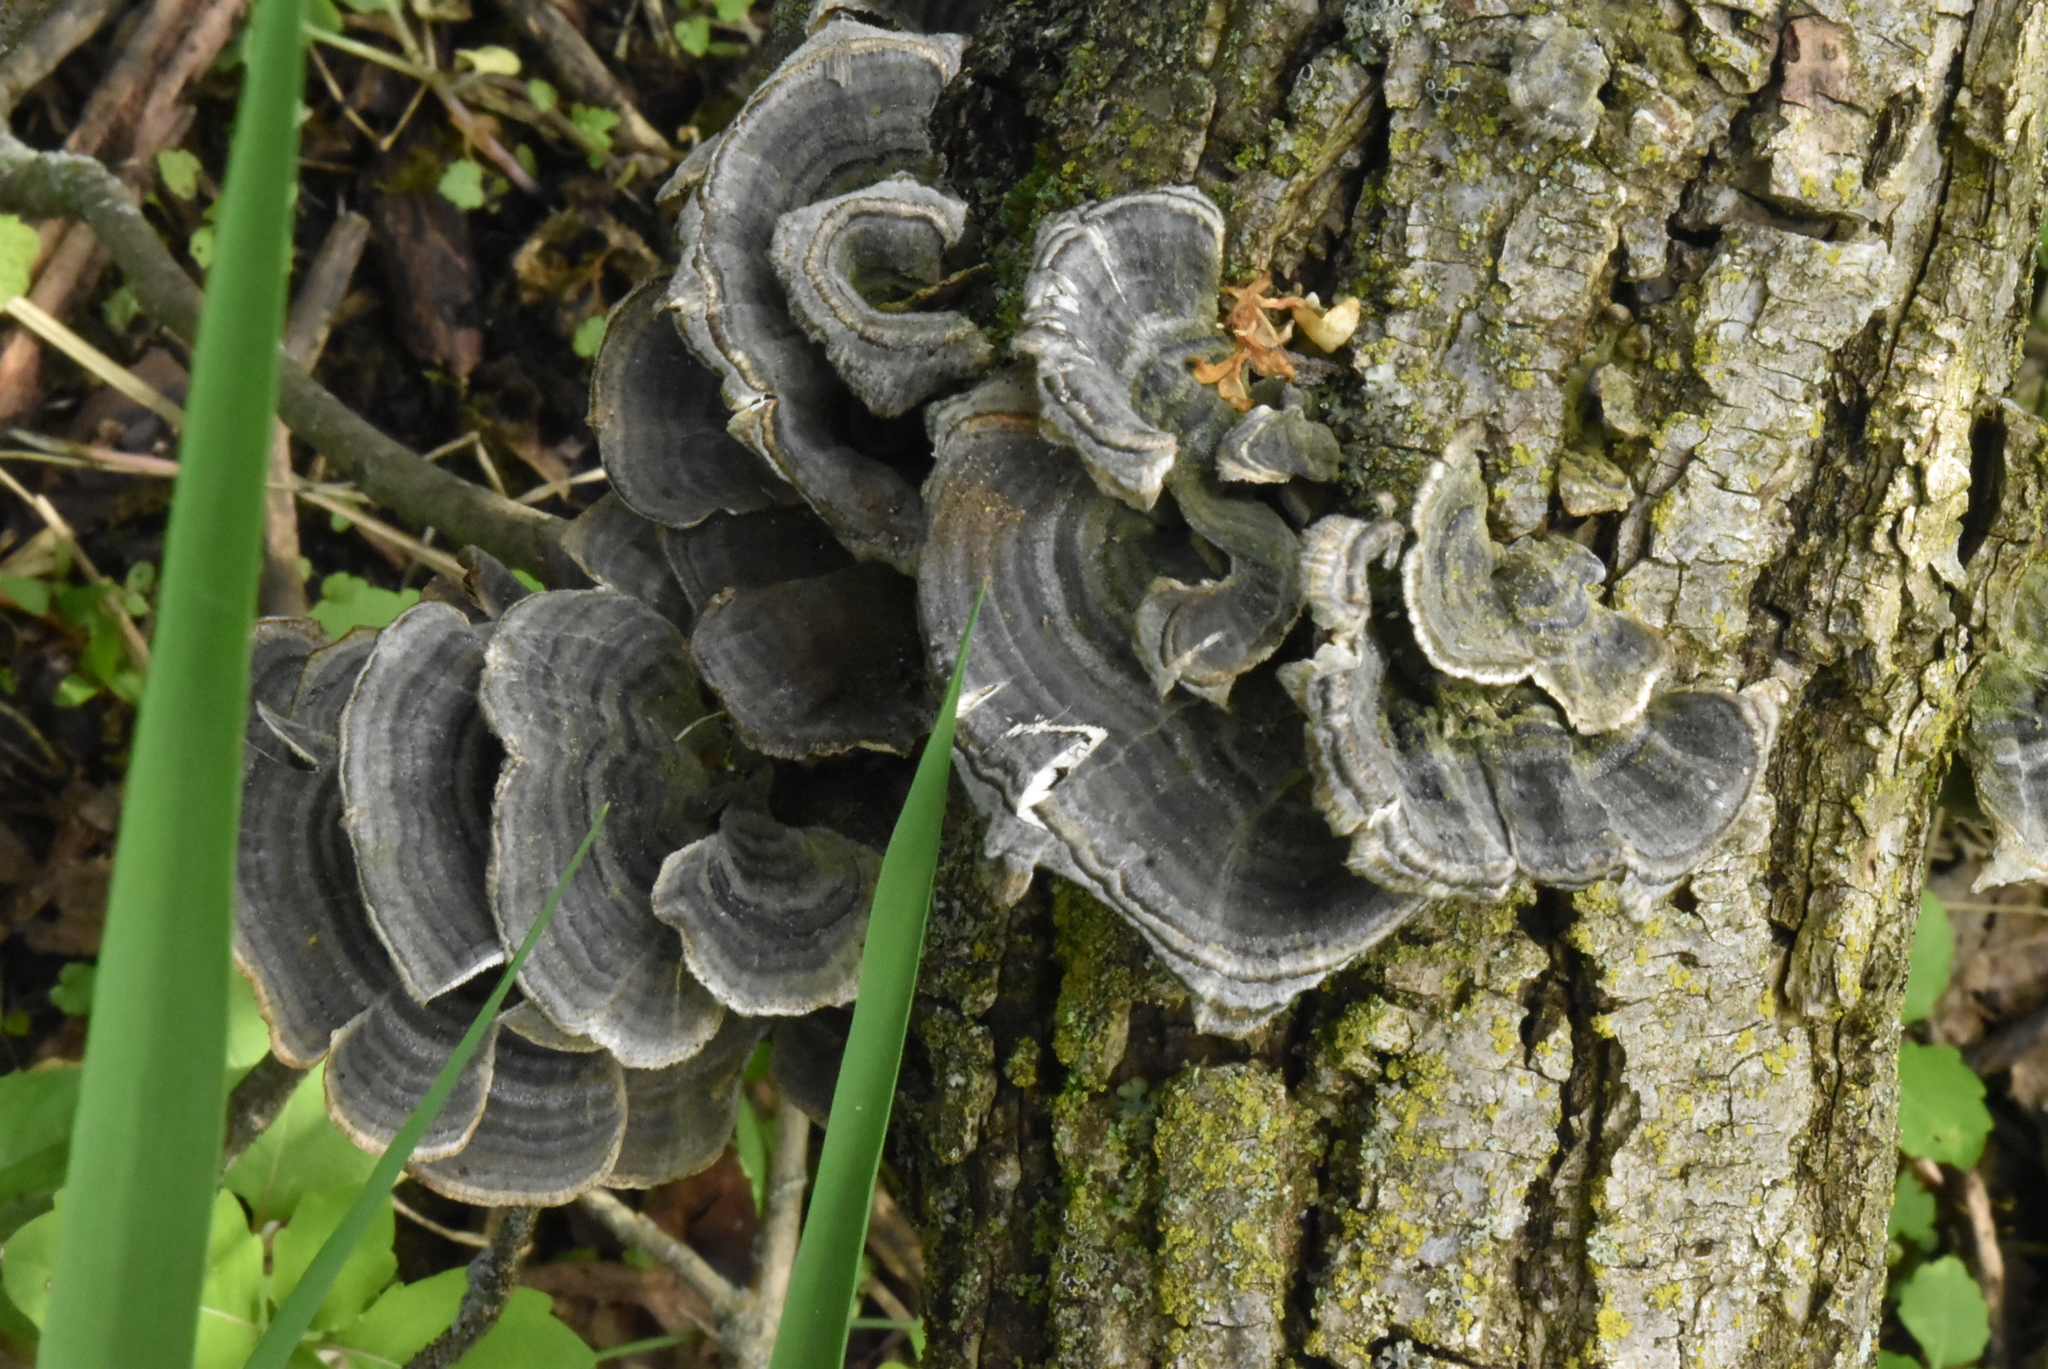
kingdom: Fungi
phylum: Basidiomycota
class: Agaricomycetes
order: Polyporales
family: Polyporaceae
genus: Trametes
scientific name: Trametes versicolor
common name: Turkeytail
